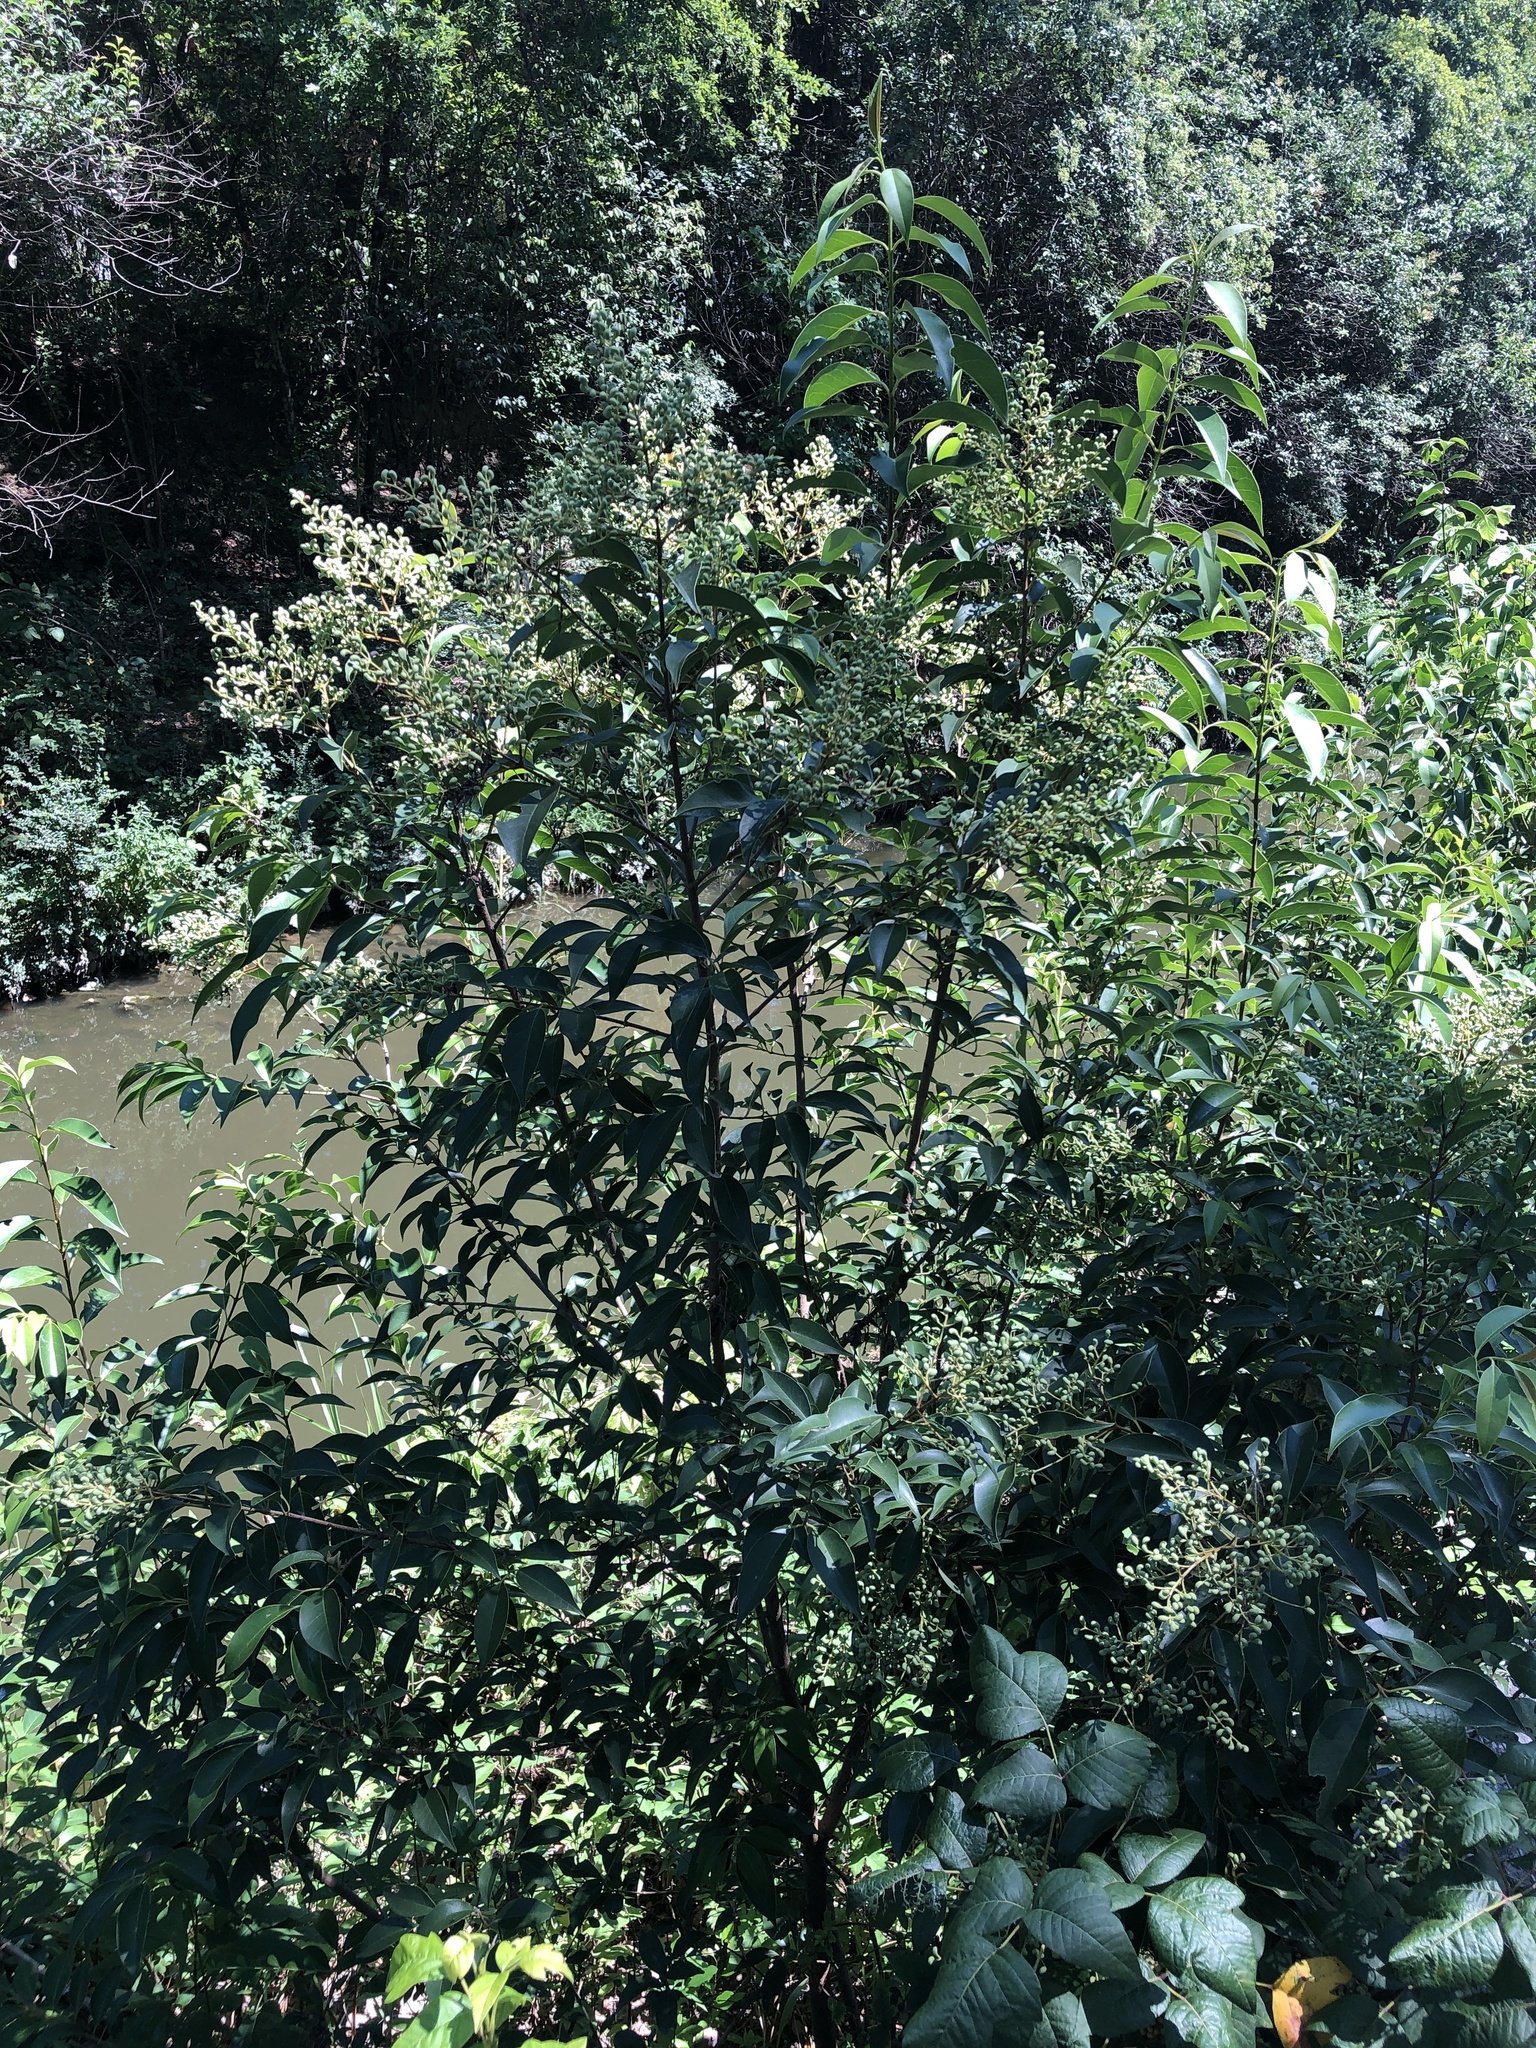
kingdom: Plantae
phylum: Tracheophyta
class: Magnoliopsida
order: Lamiales
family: Oleaceae
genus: Ligustrum
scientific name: Ligustrum lucidum
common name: Glossy privet
